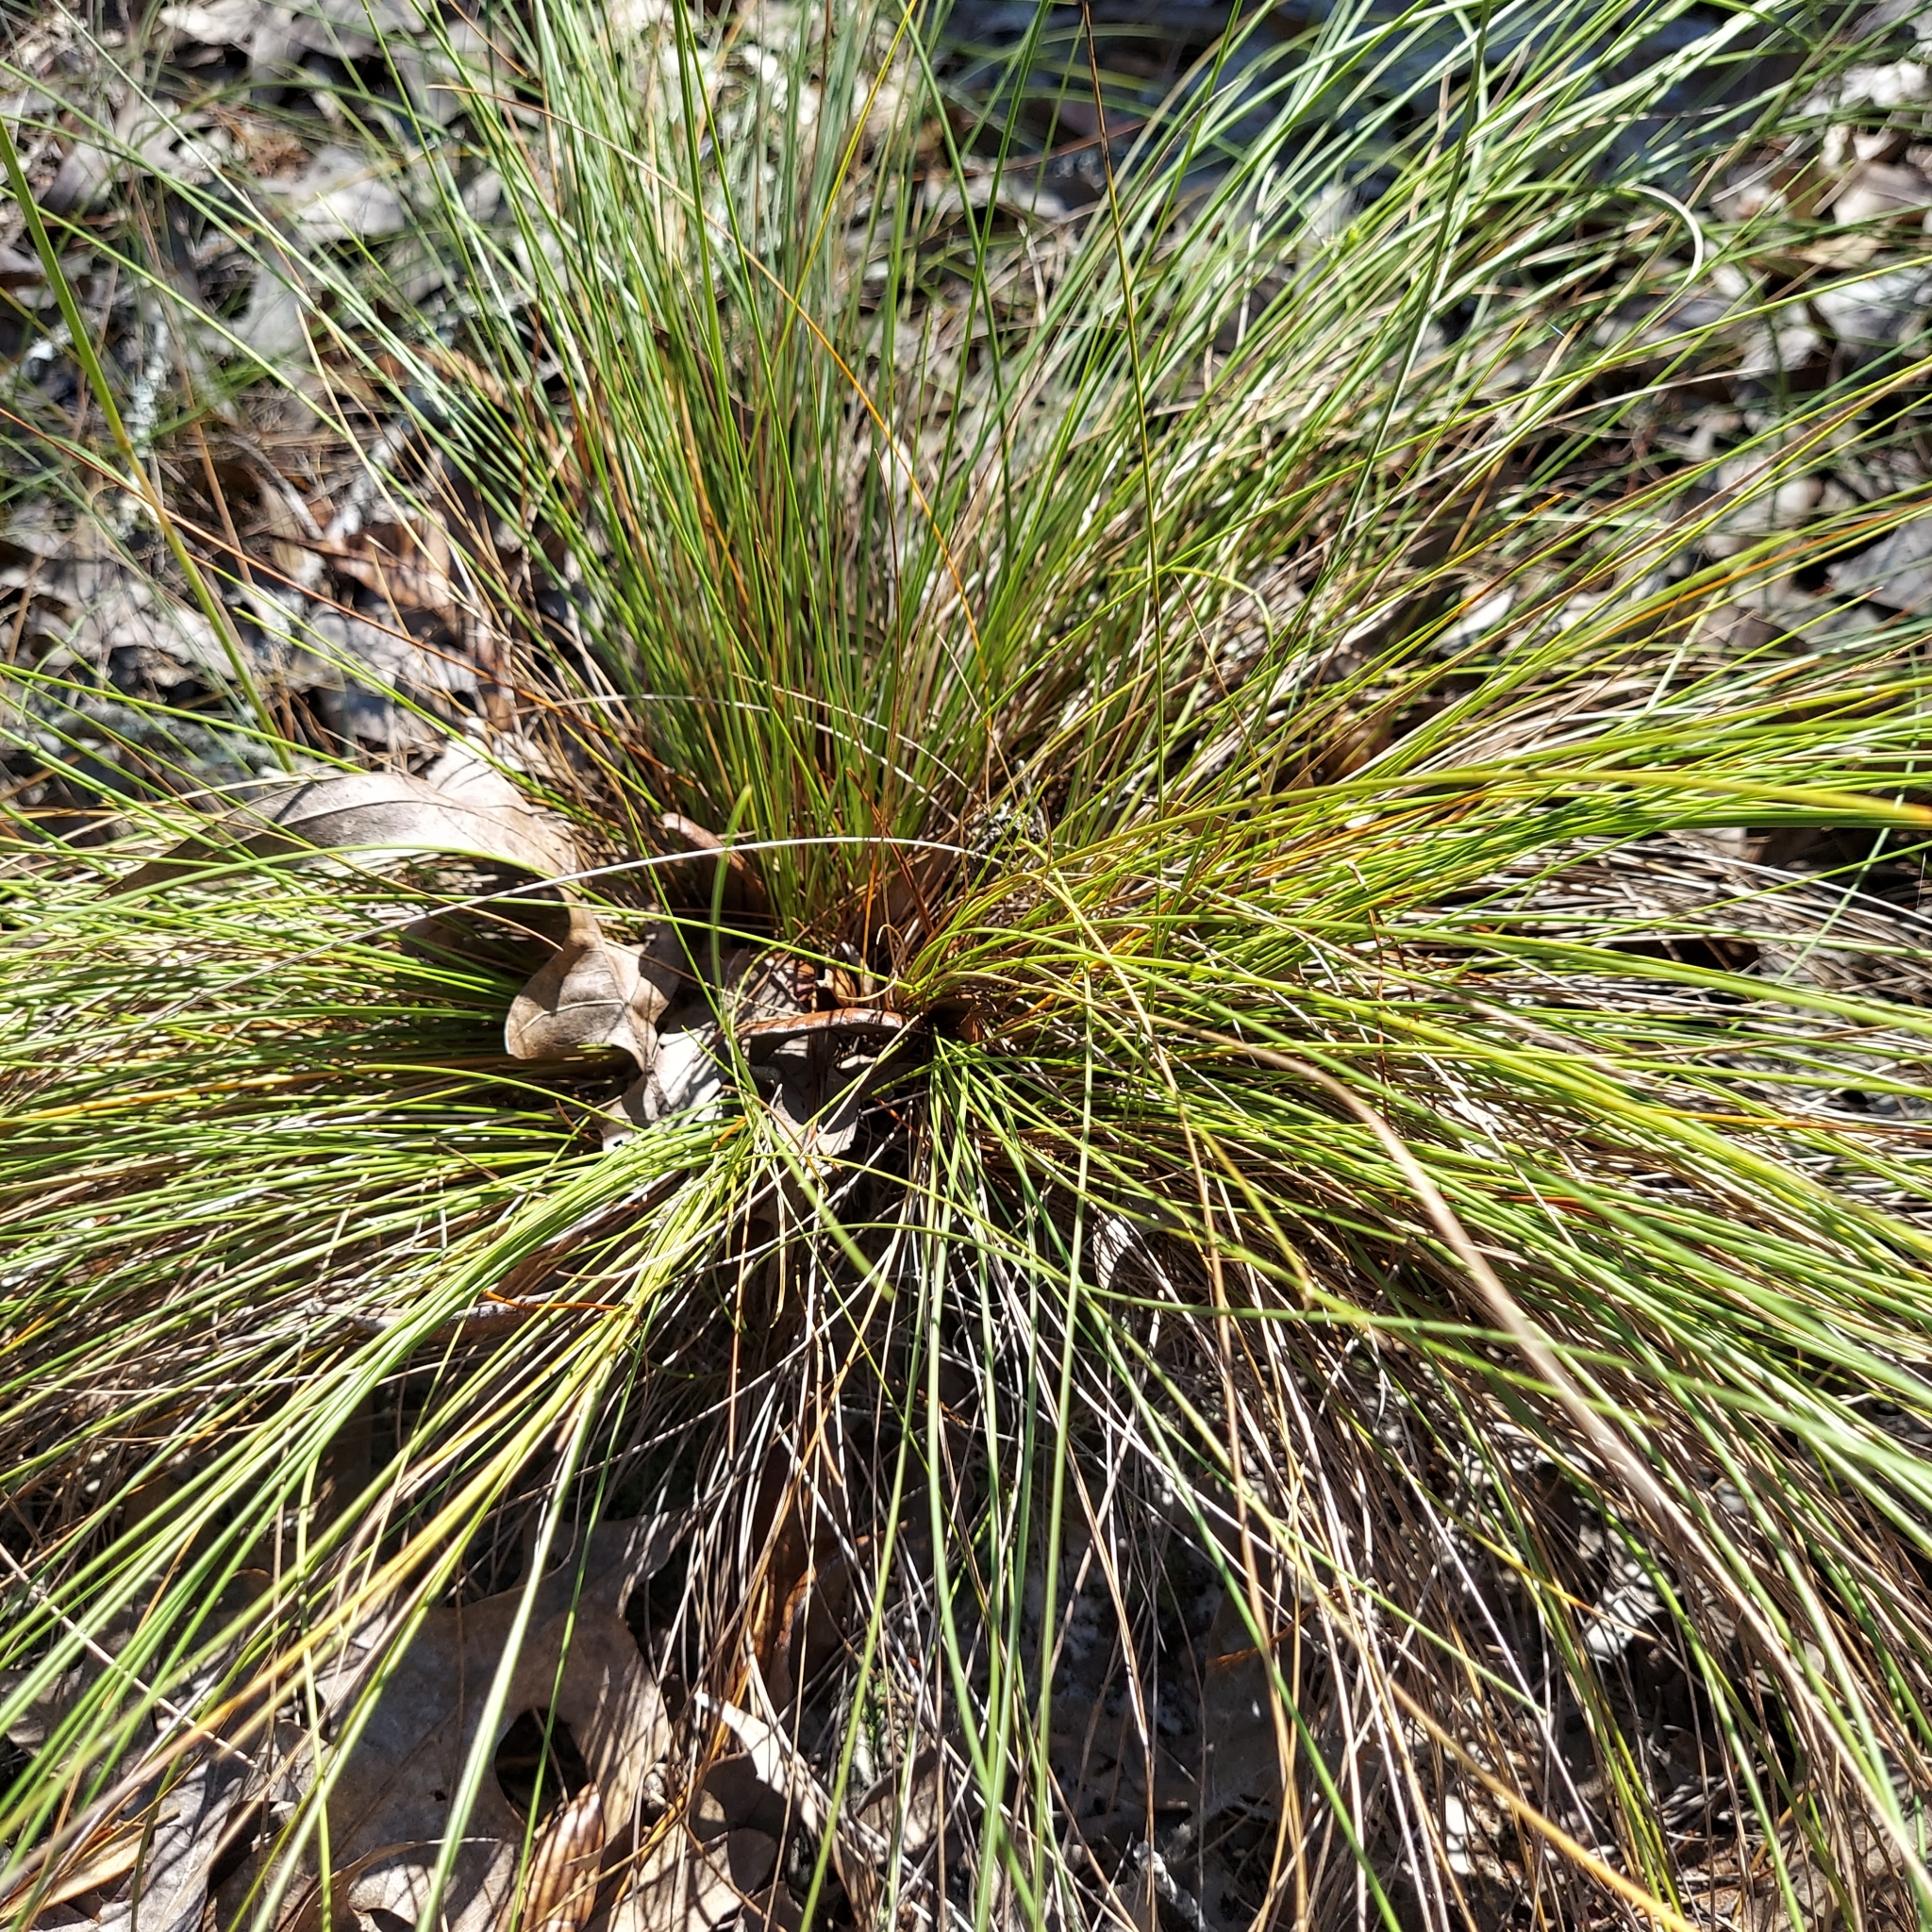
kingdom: Plantae
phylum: Tracheophyta
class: Liliopsida
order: Poales
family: Poaceae
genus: Sporobolus
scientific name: Sporobolus junceus
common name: Lizard grass
